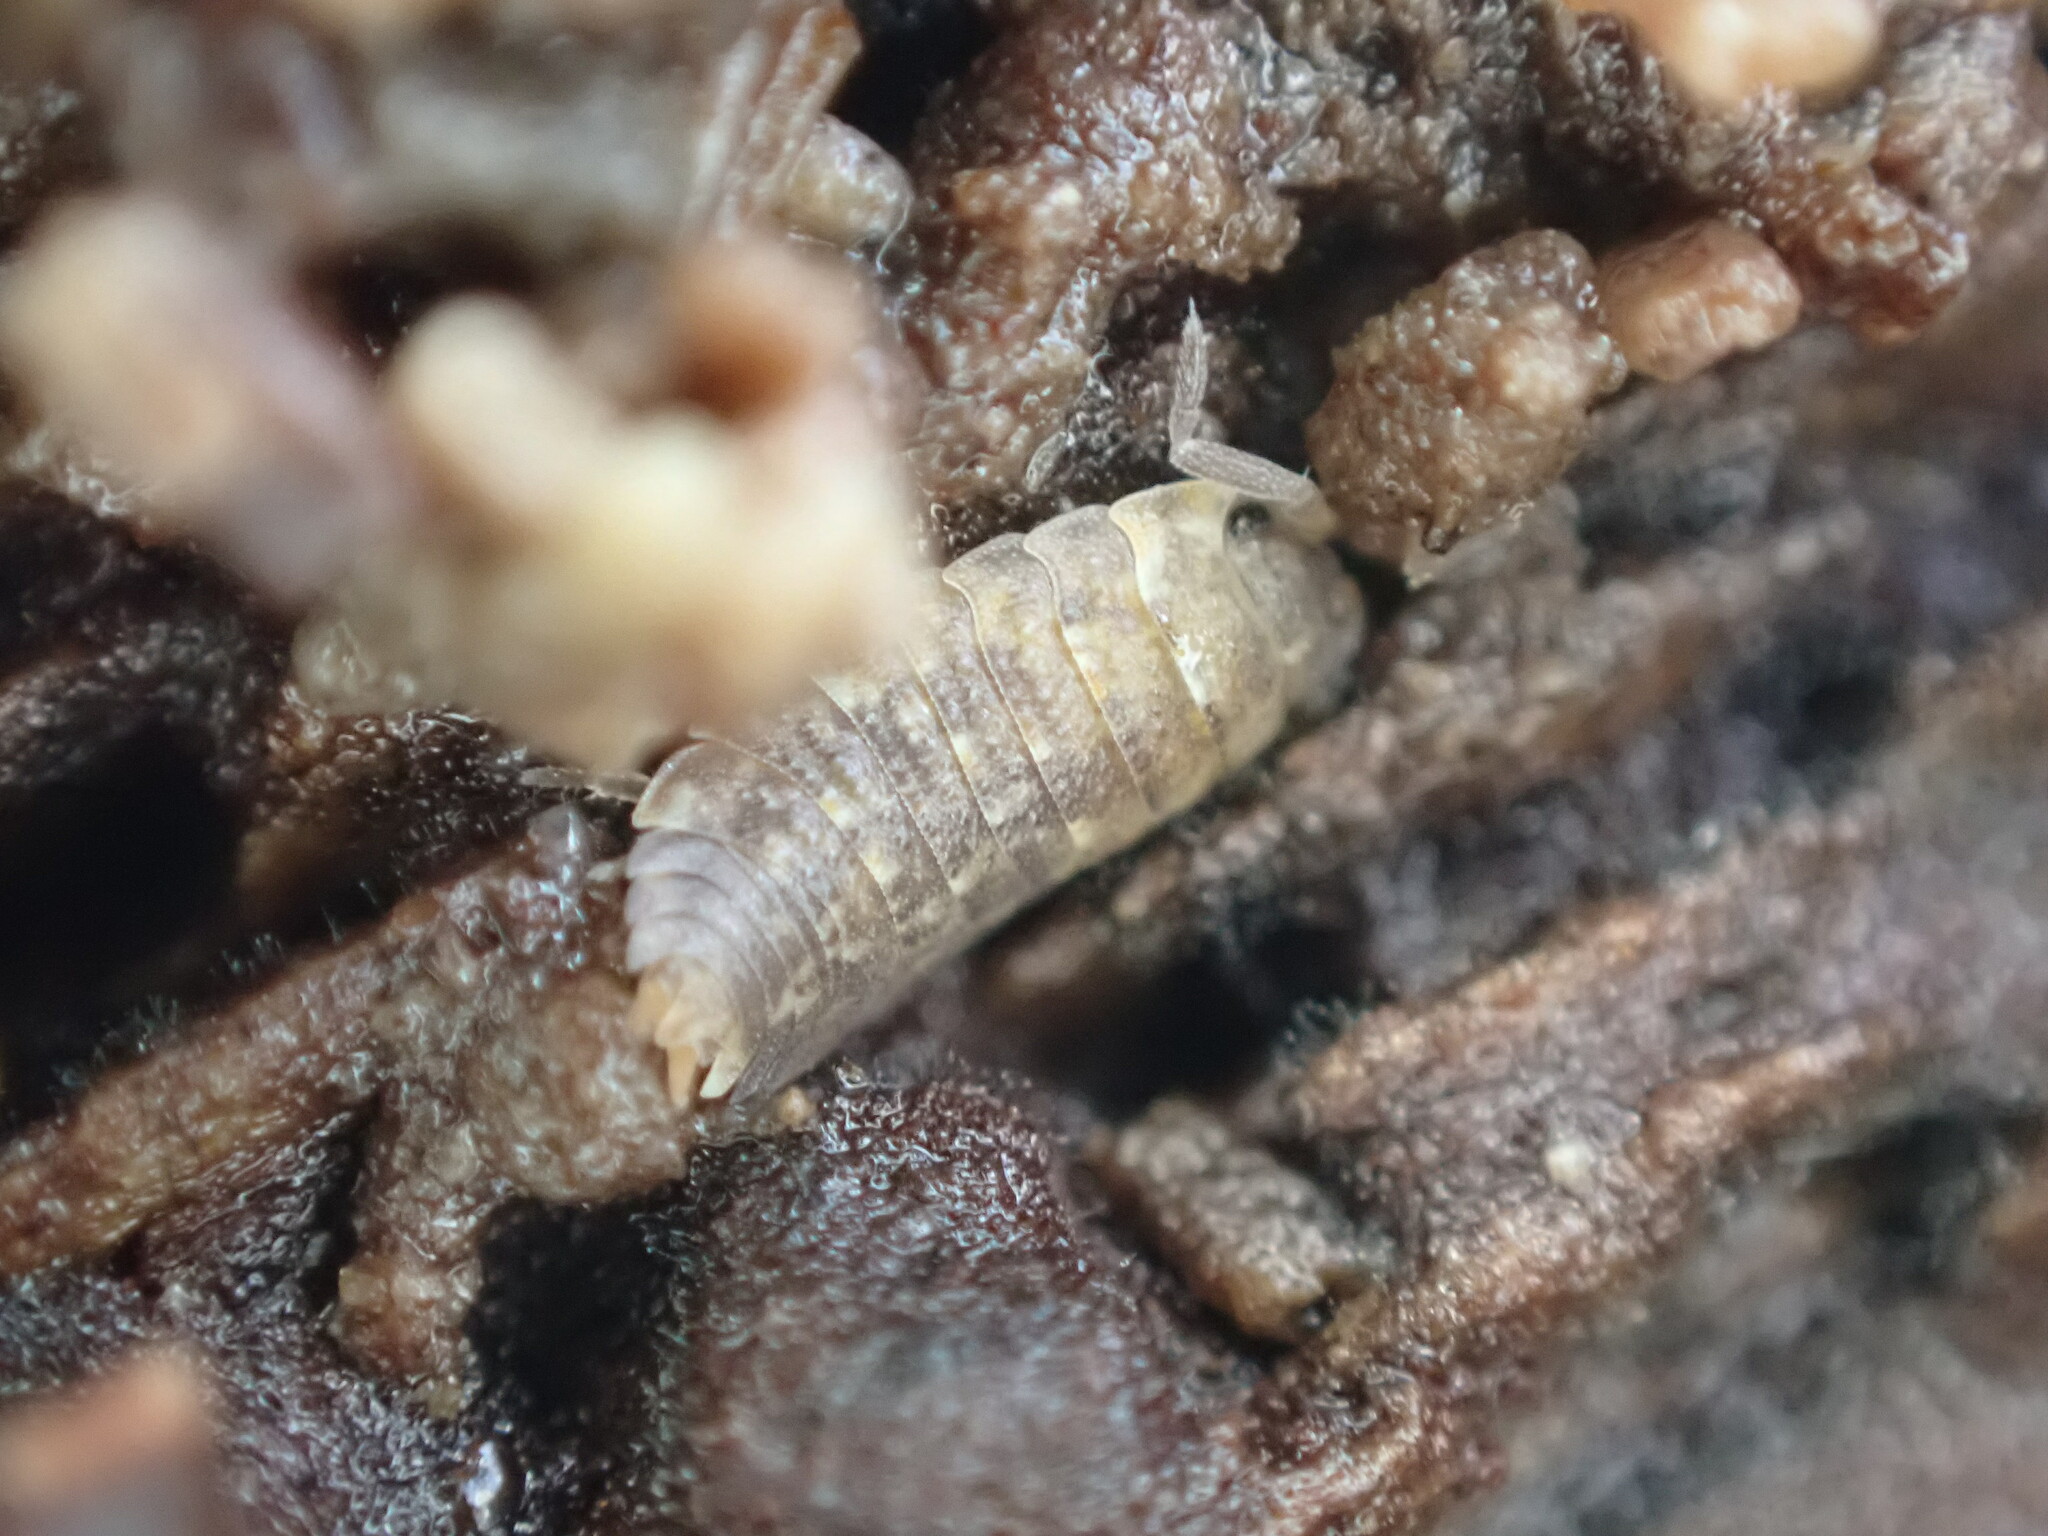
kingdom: Animalia
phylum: Arthropoda
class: Malacostraca
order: Isopoda
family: Porcellionidae
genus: Porcellio
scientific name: Porcellio scaber
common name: Common rough woodlouse
